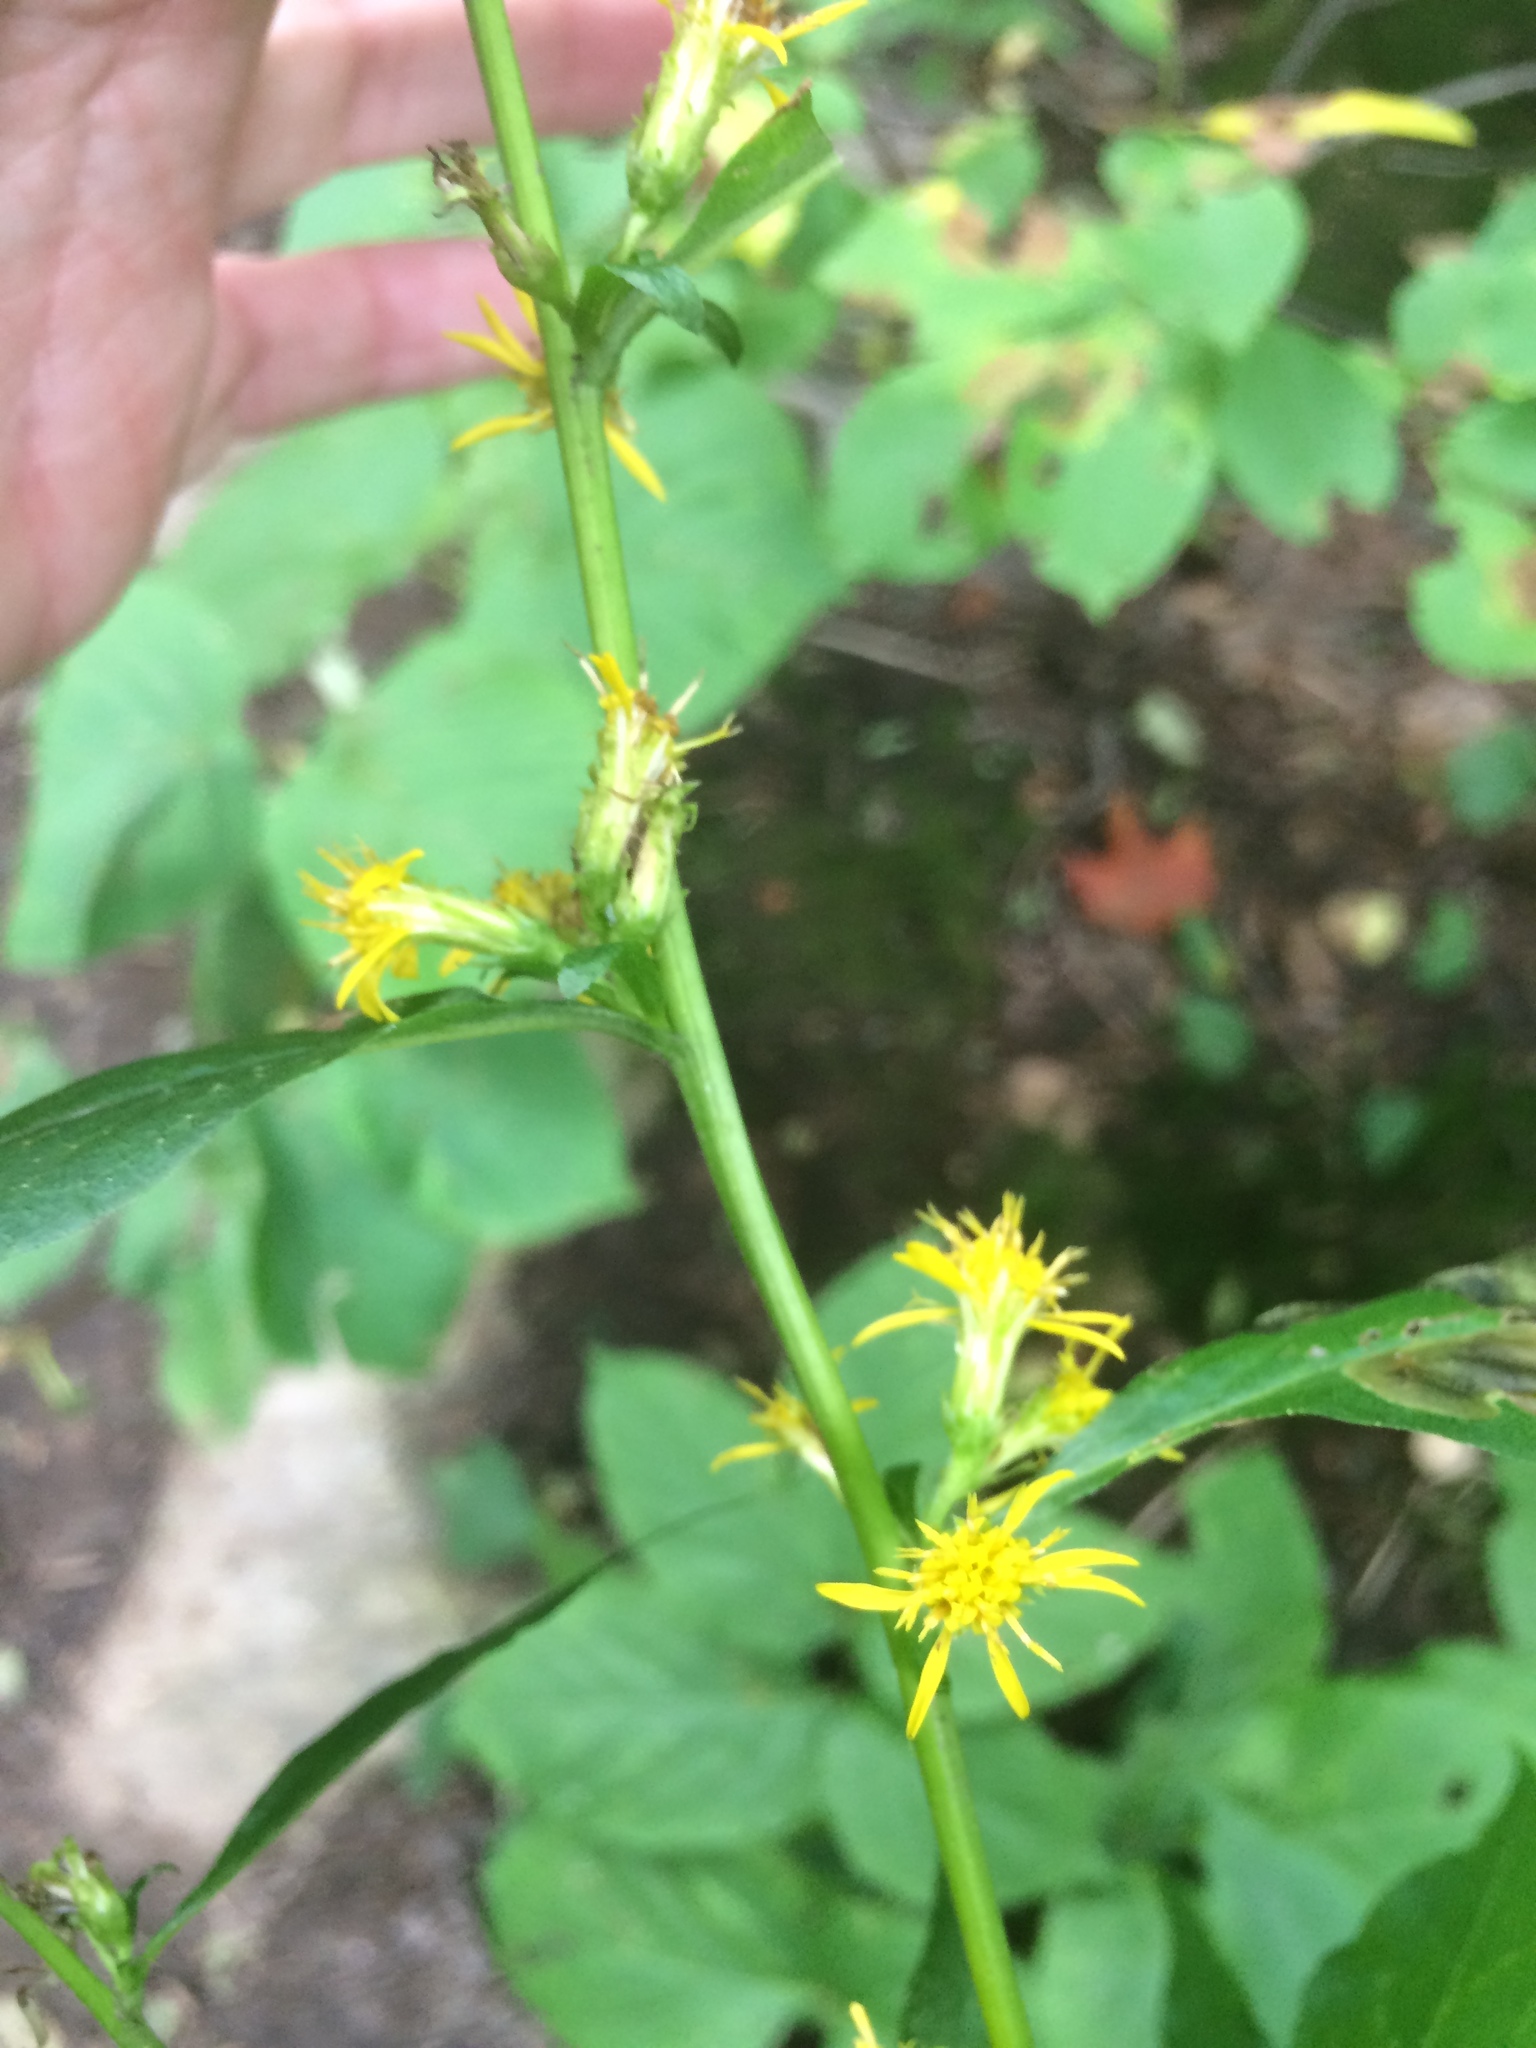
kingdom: Plantae
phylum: Tracheophyta
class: Magnoliopsida
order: Asterales
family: Asteraceae
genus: Solidago
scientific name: Solidago macrophylla
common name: Large-leaved goldenrod
